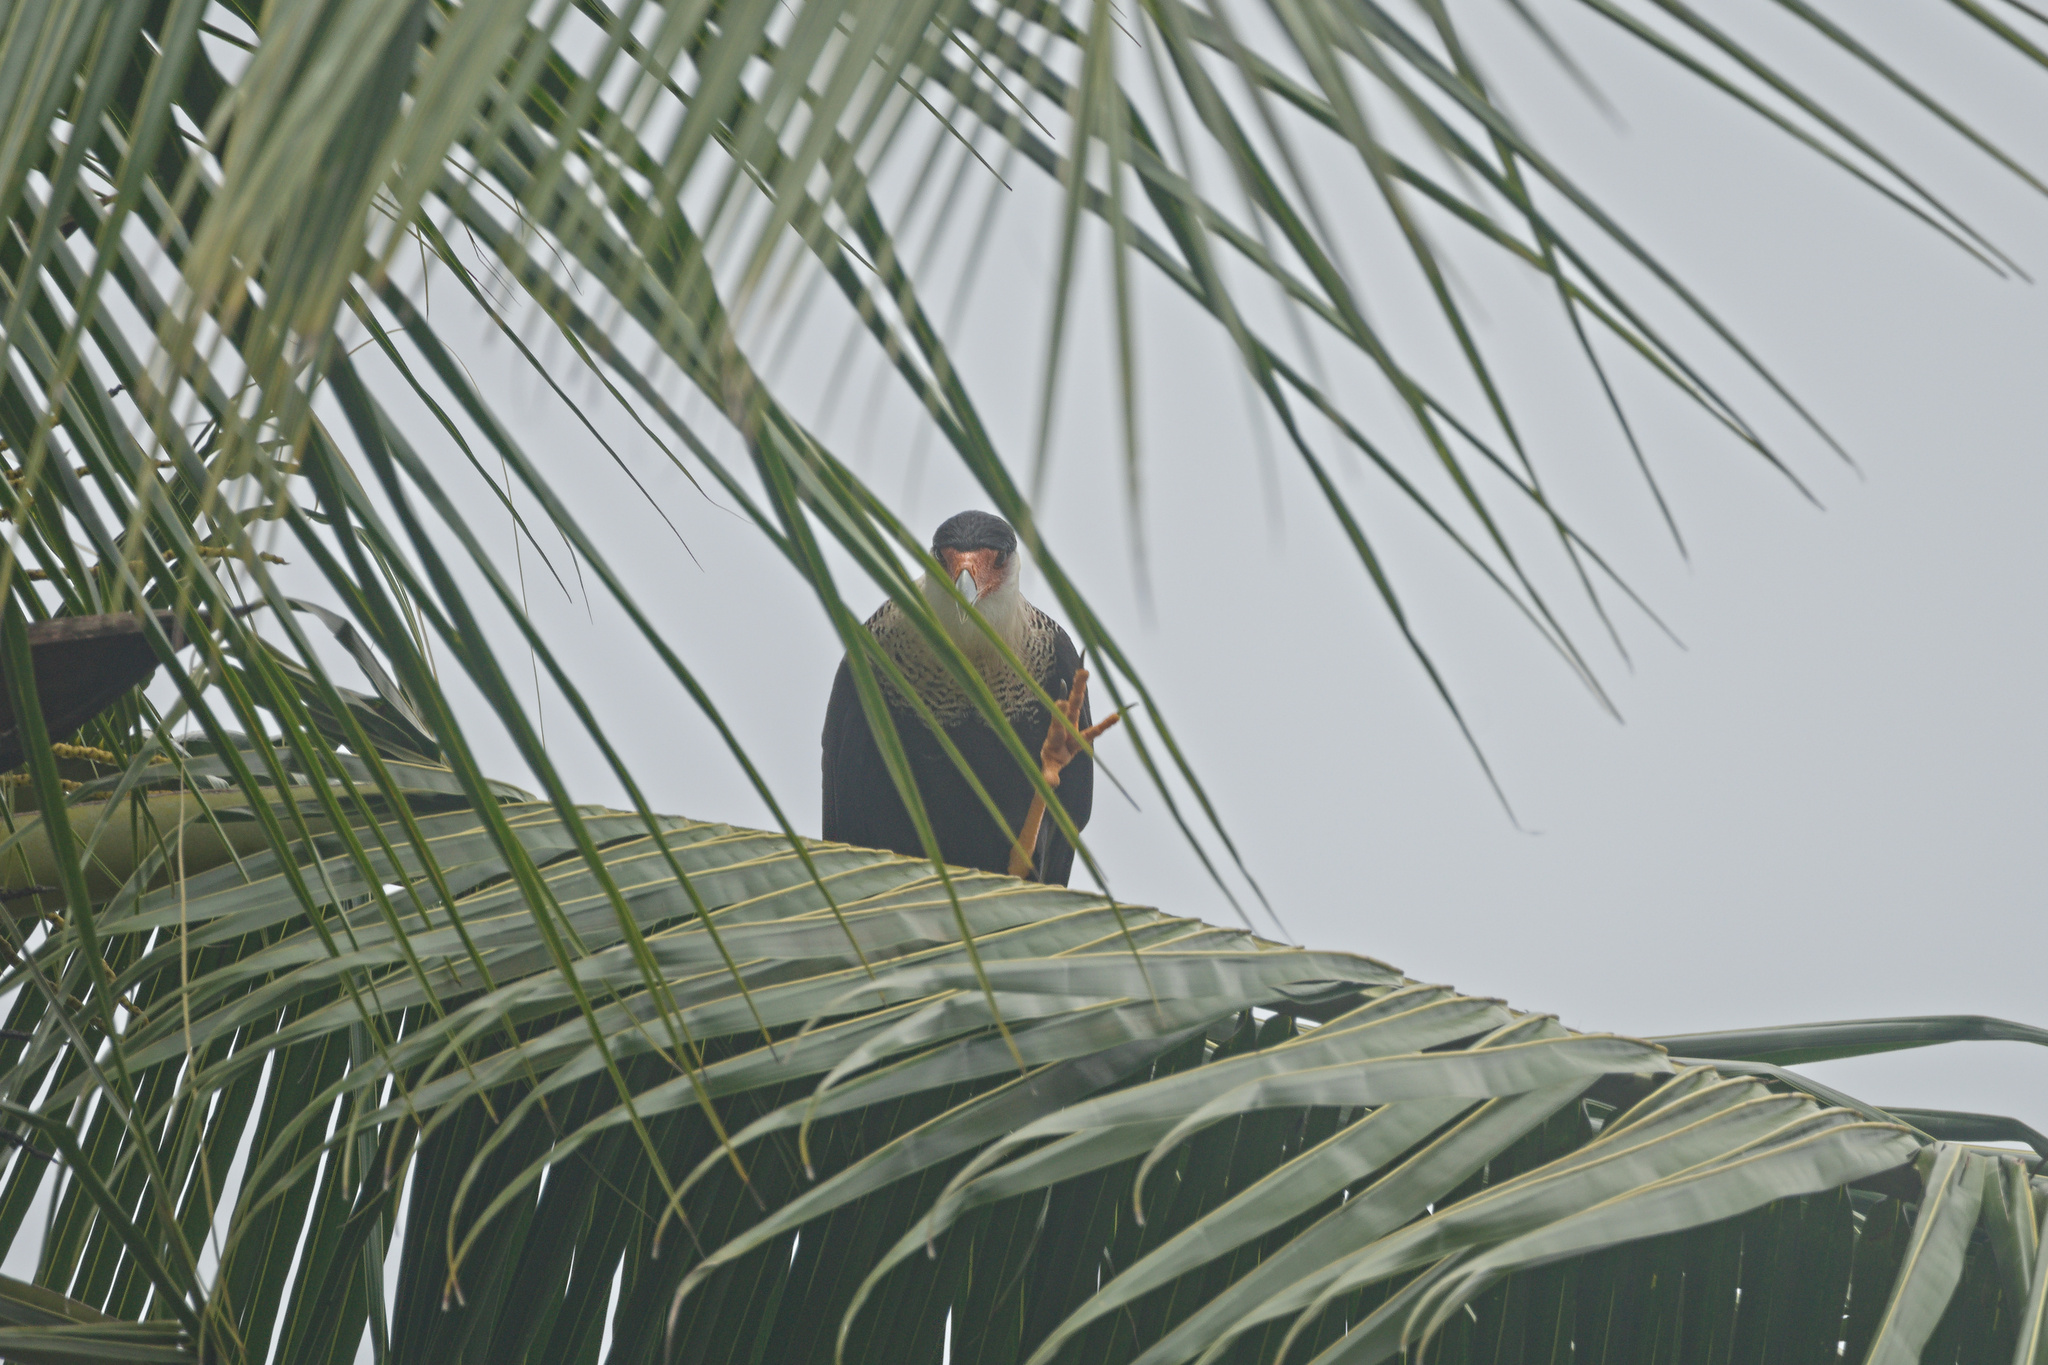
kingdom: Animalia
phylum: Chordata
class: Aves
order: Falconiformes
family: Falconidae
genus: Caracara
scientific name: Caracara plancus
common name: Southern caracara
